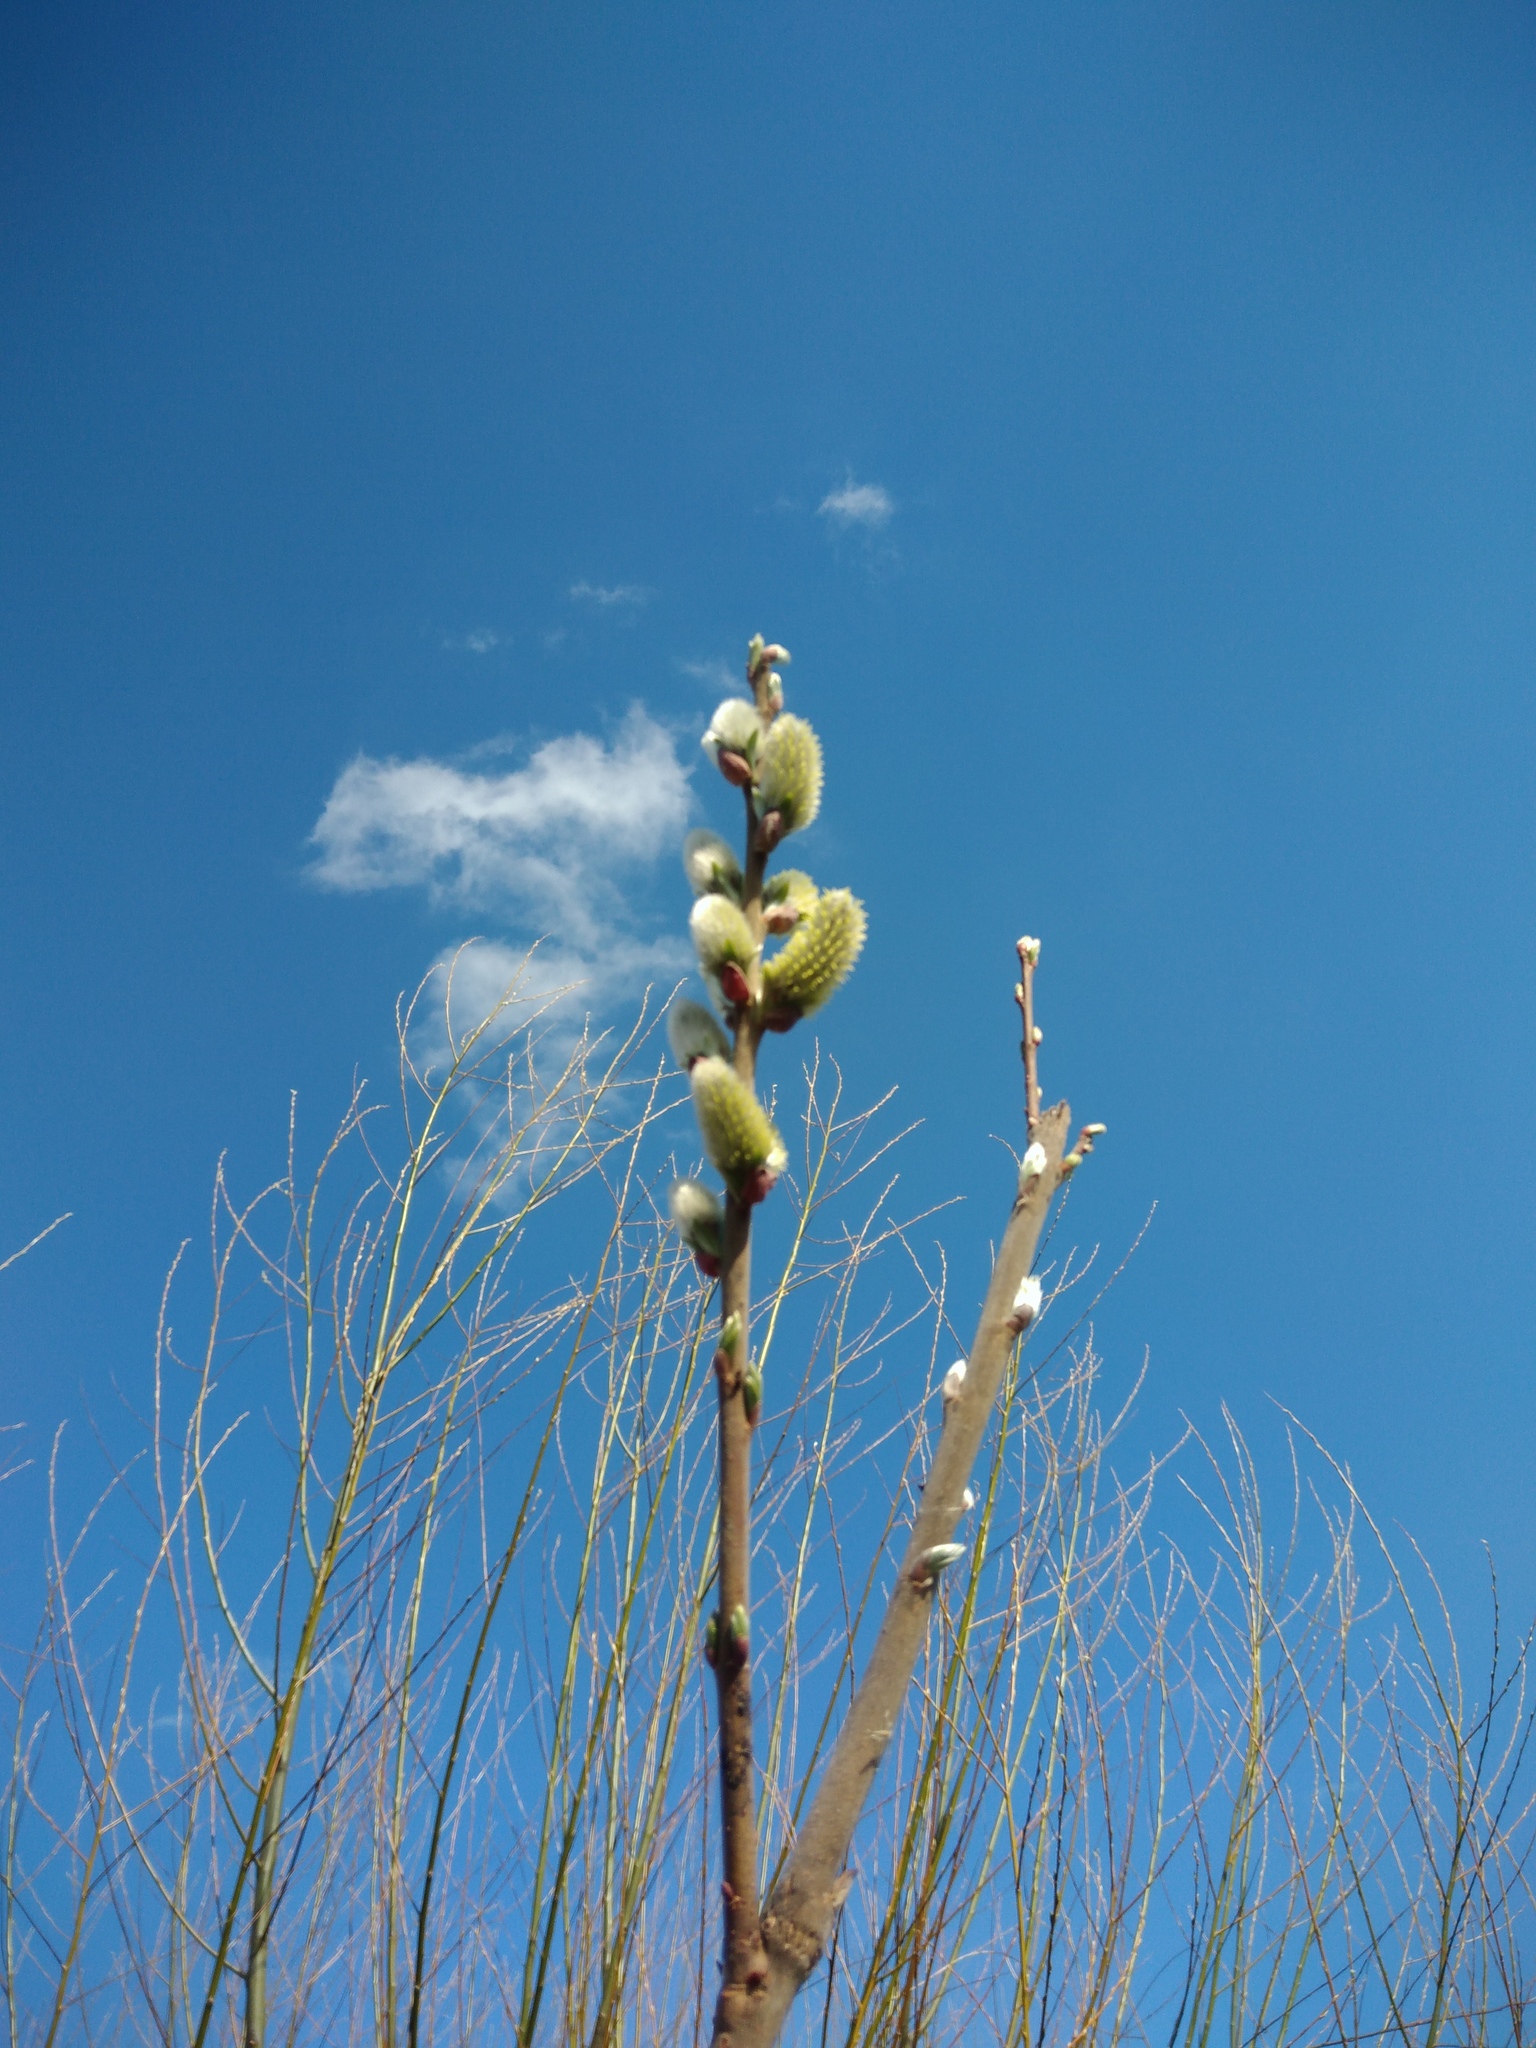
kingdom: Plantae
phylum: Tracheophyta
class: Magnoliopsida
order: Malpighiales
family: Salicaceae
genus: Salix
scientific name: Salix cinerea
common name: Common sallow
